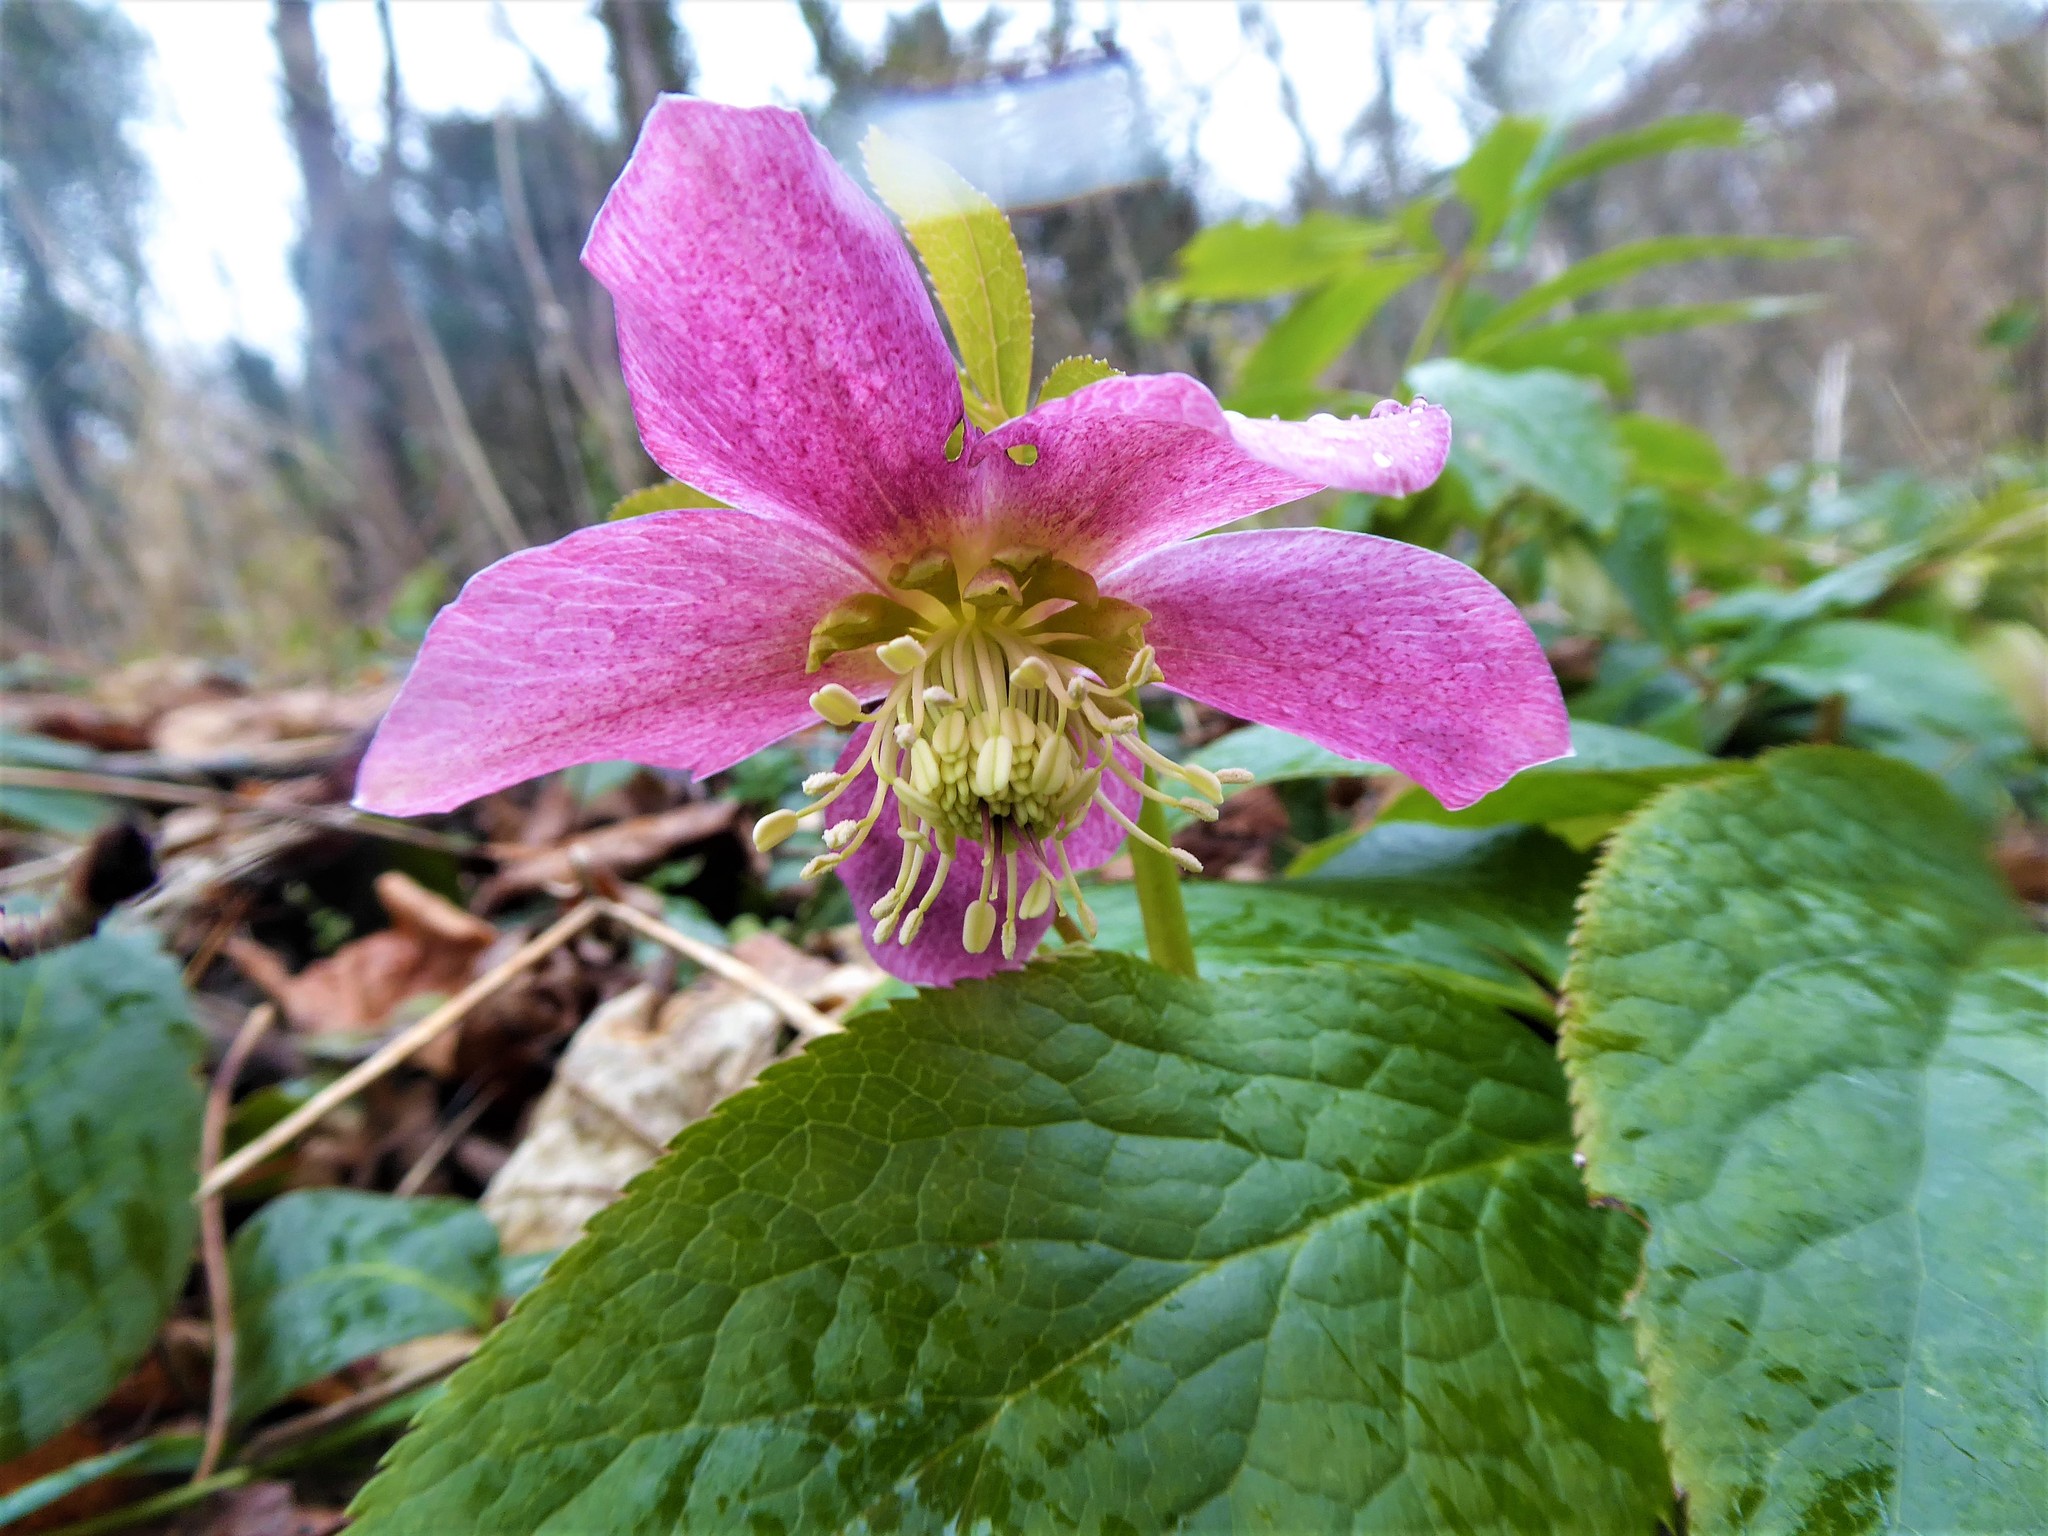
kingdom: Plantae
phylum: Tracheophyta
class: Magnoliopsida
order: Ranunculales
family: Ranunculaceae
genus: Helleborus
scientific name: Helleborus hybridus
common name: Hybrid lenten-rose
